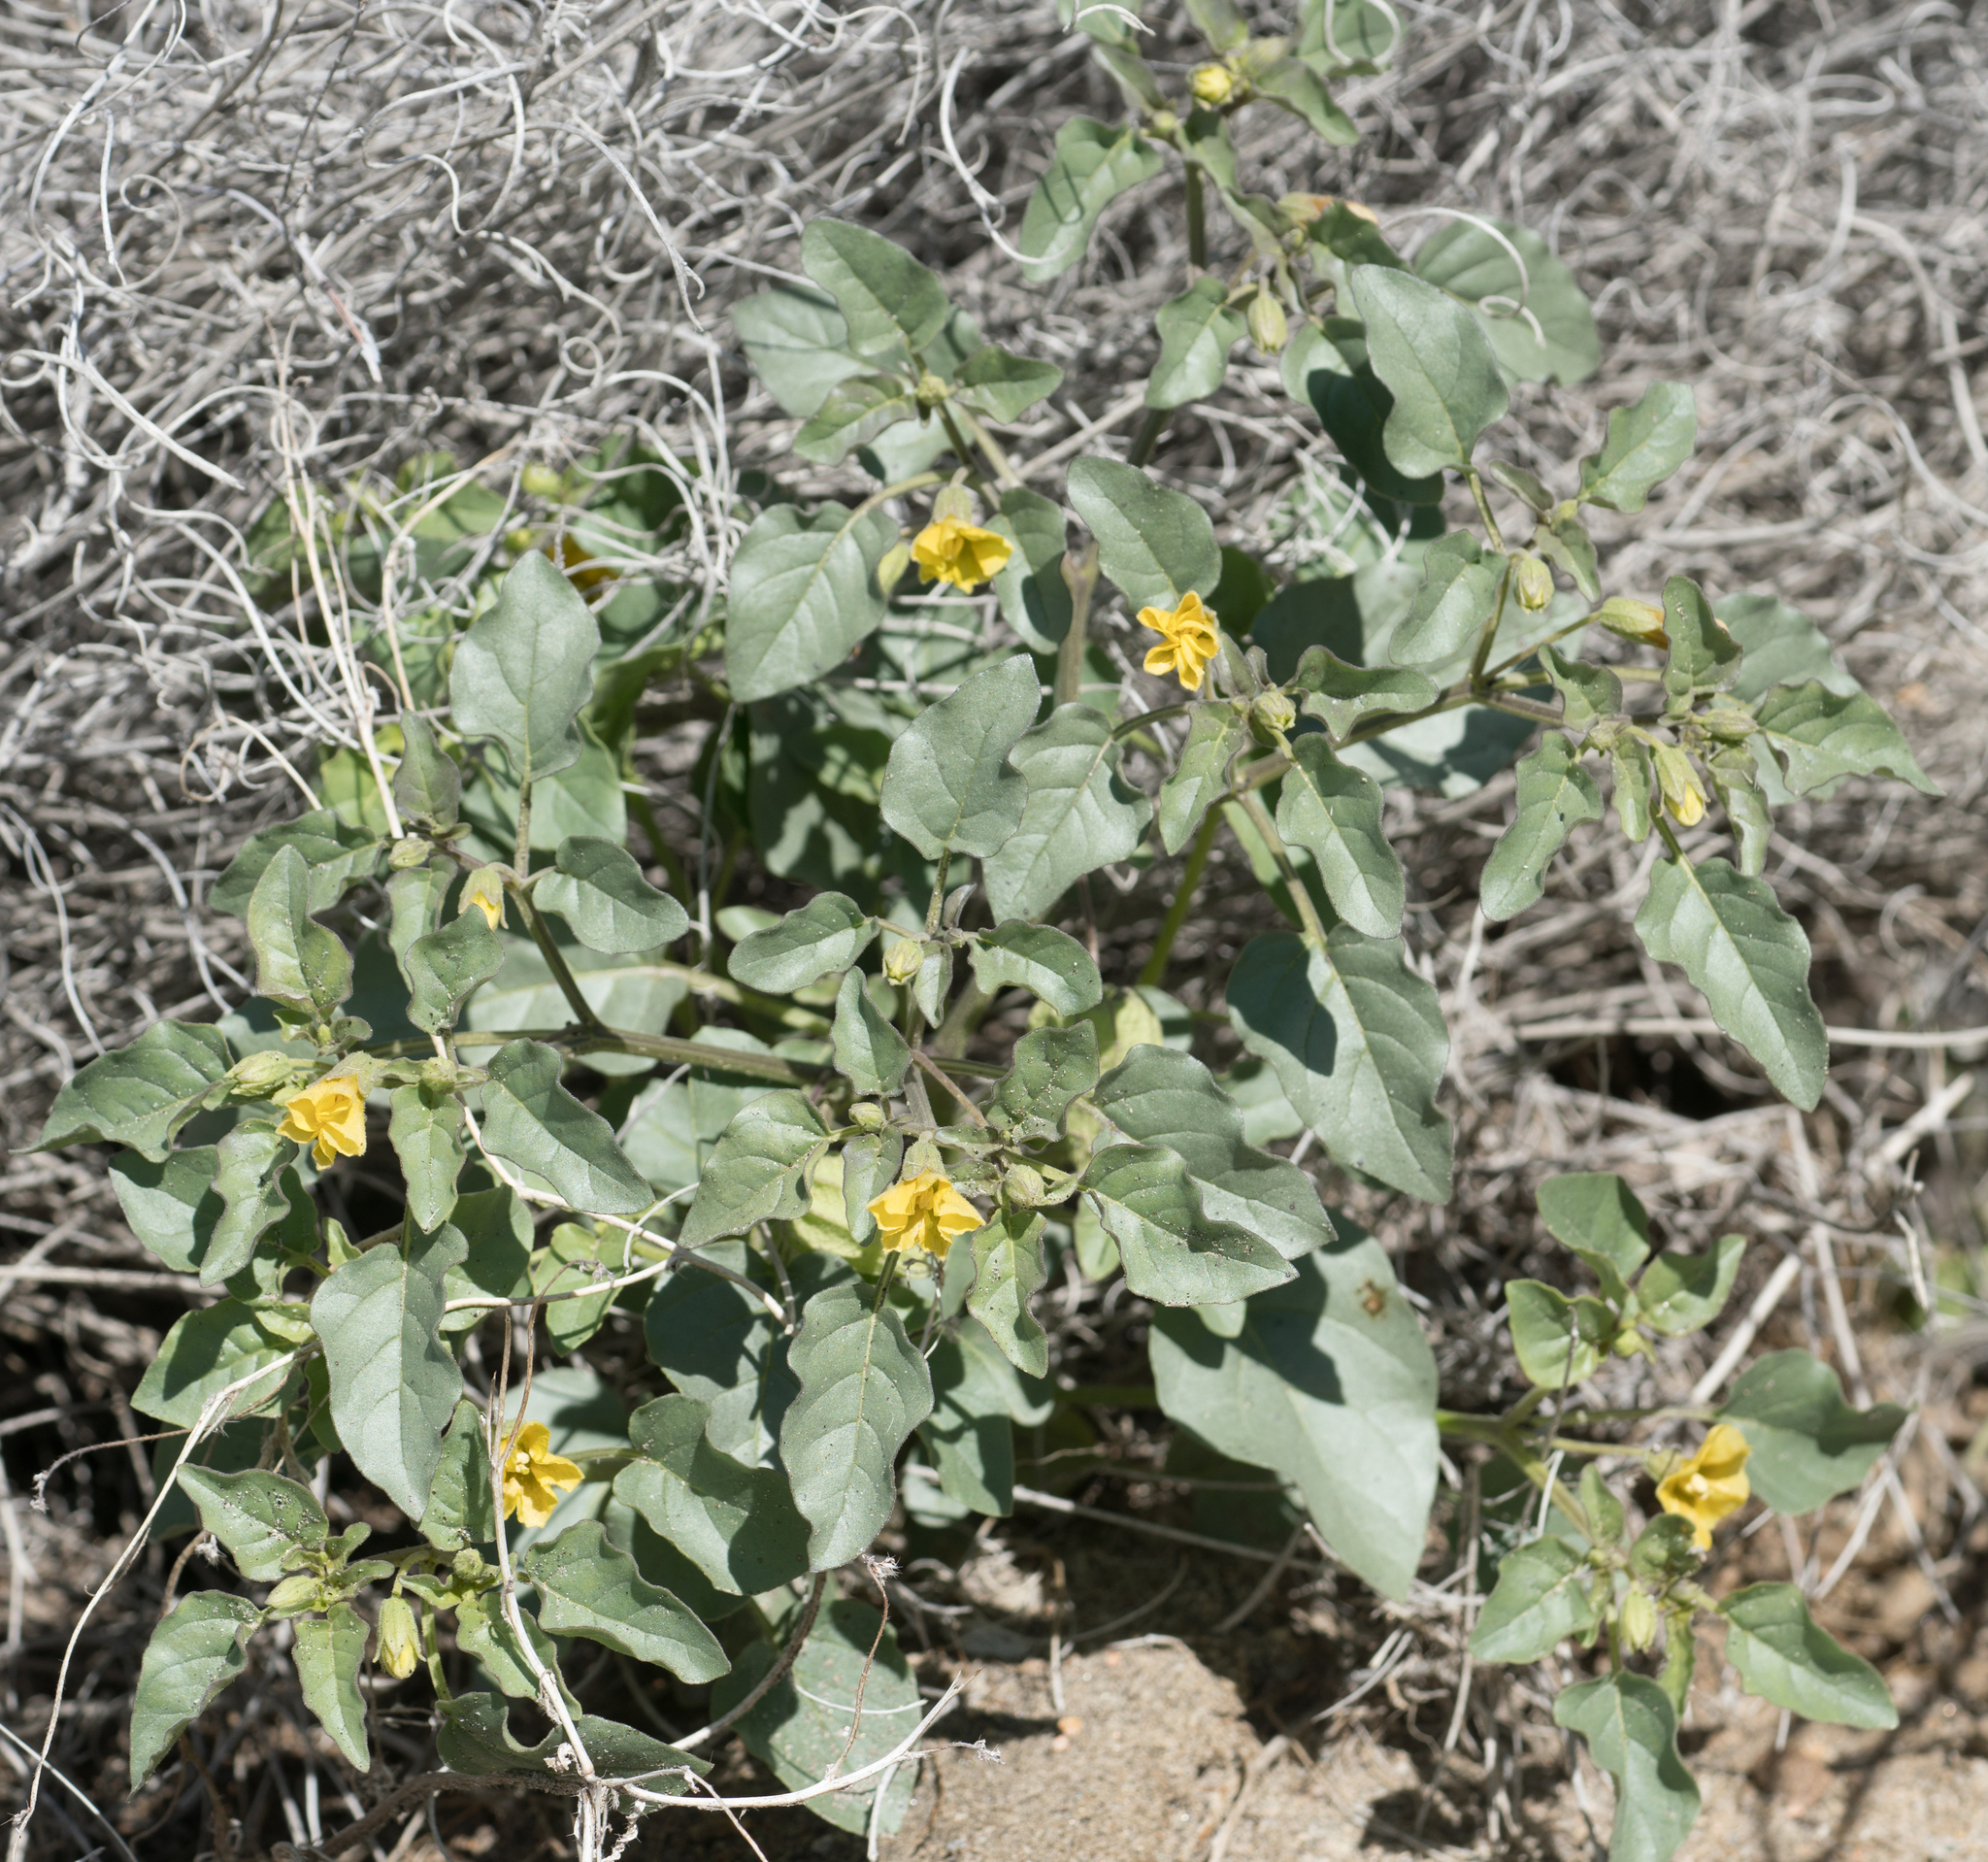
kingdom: Plantae
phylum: Tracheophyta
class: Magnoliopsida
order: Solanales
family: Solanaceae
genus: Physalis
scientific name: Physalis crassifolia
